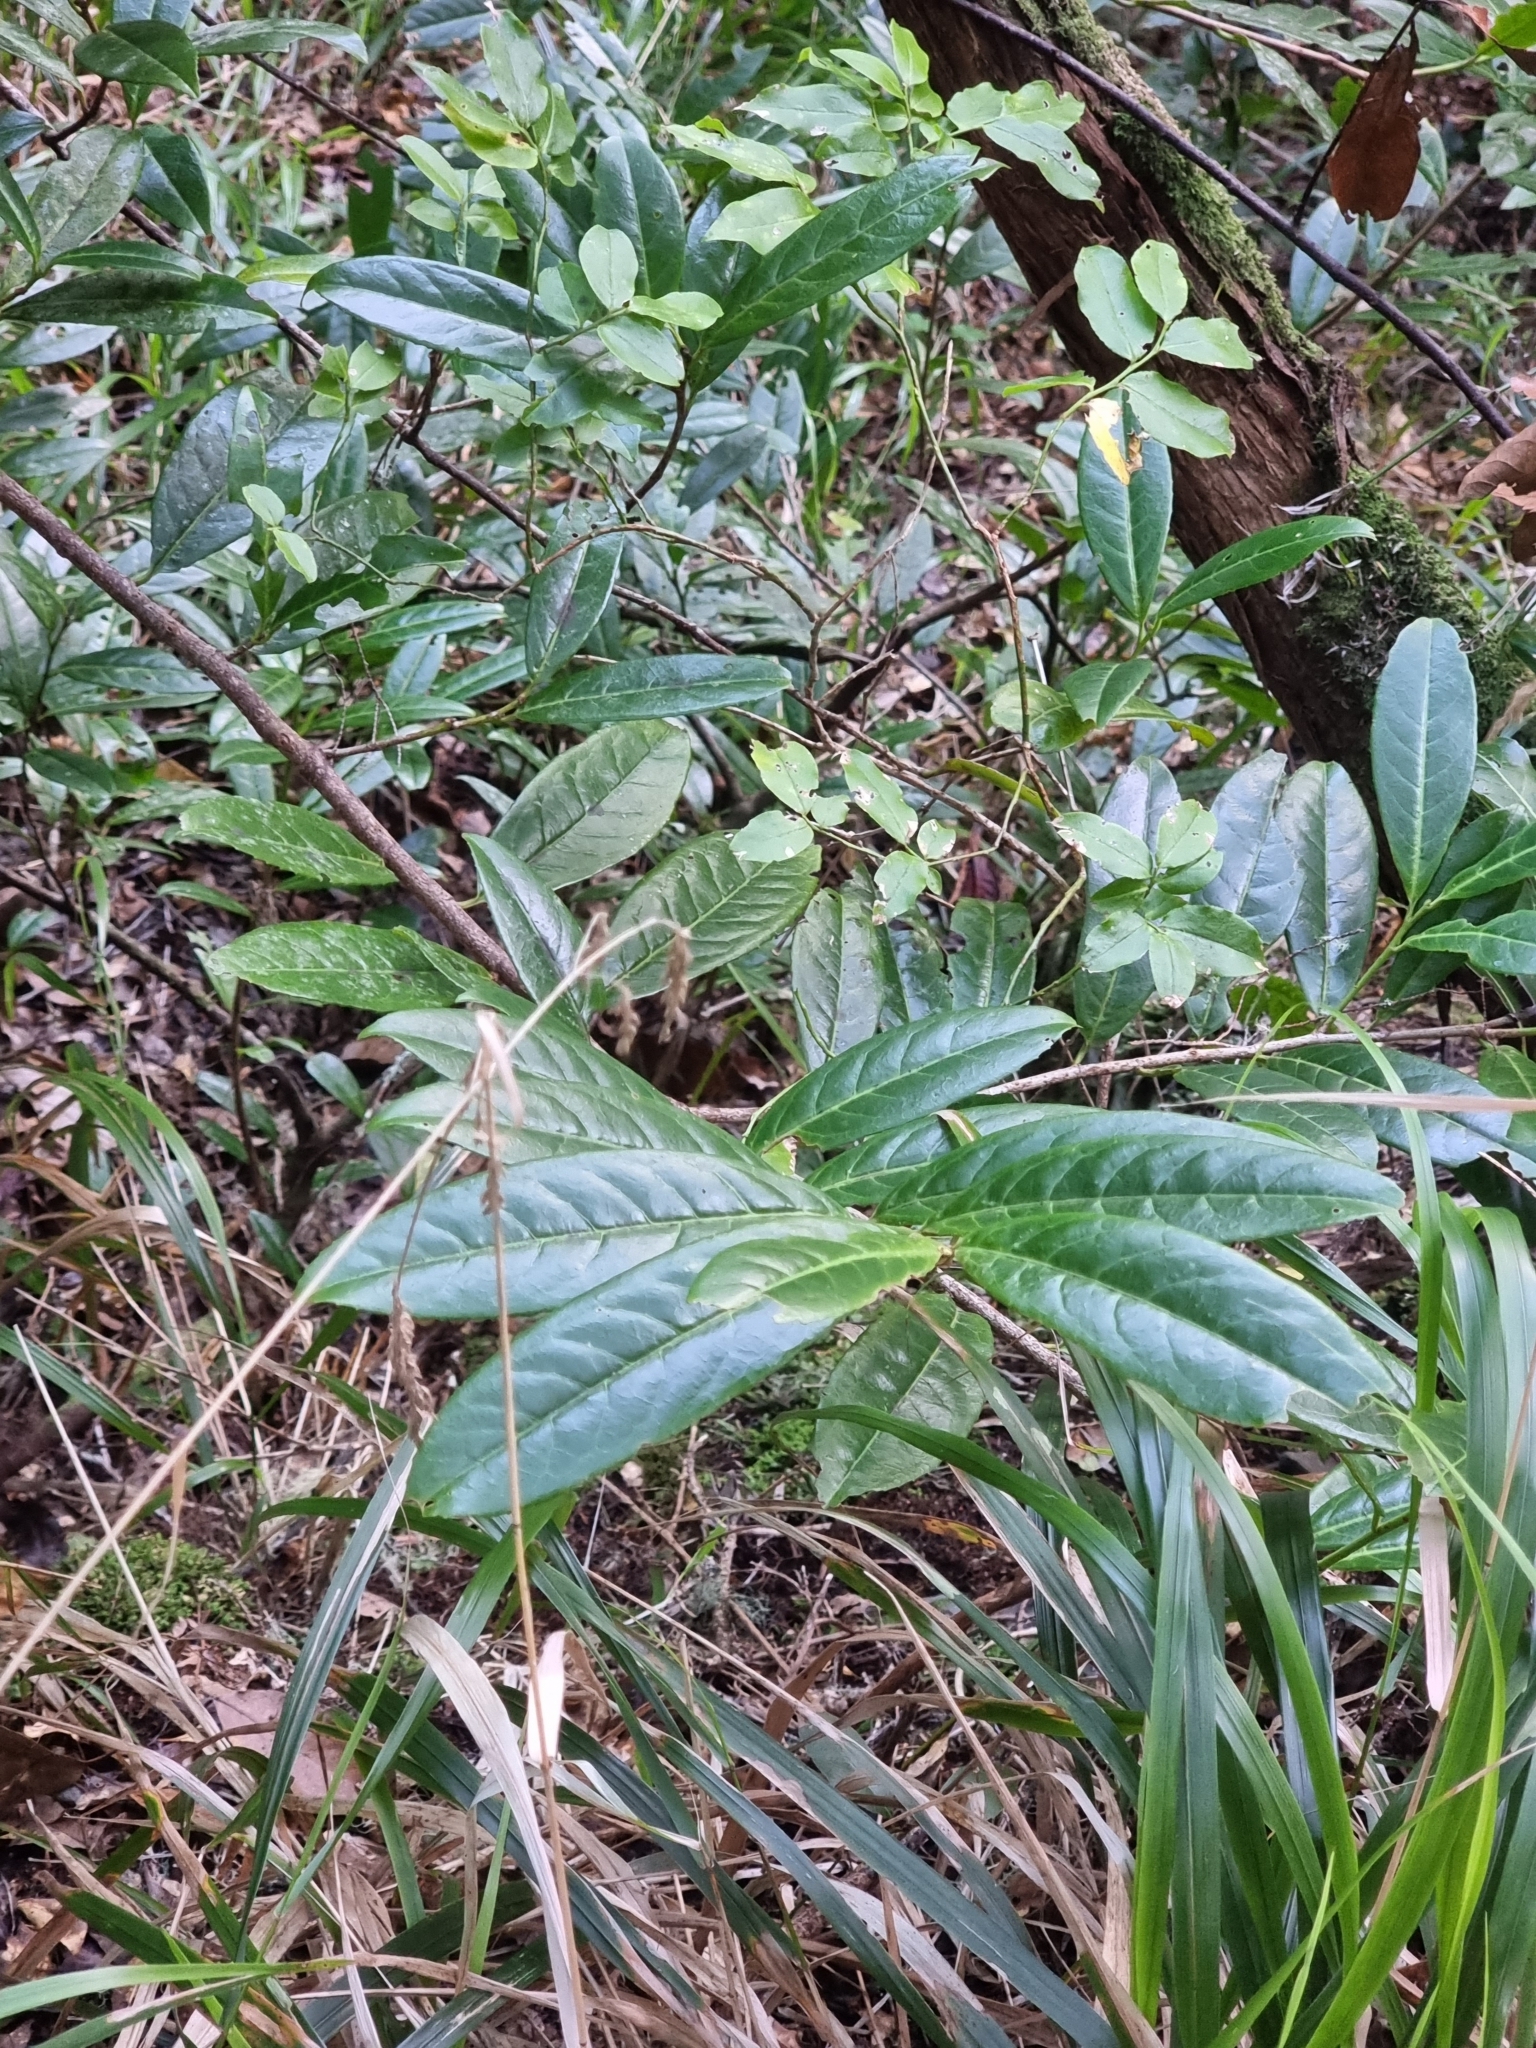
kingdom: Plantae
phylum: Tracheophyta
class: Magnoliopsida
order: Rosales
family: Rosaceae
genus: Prunus
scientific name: Prunus laurocerasus
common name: Cherry laurel
